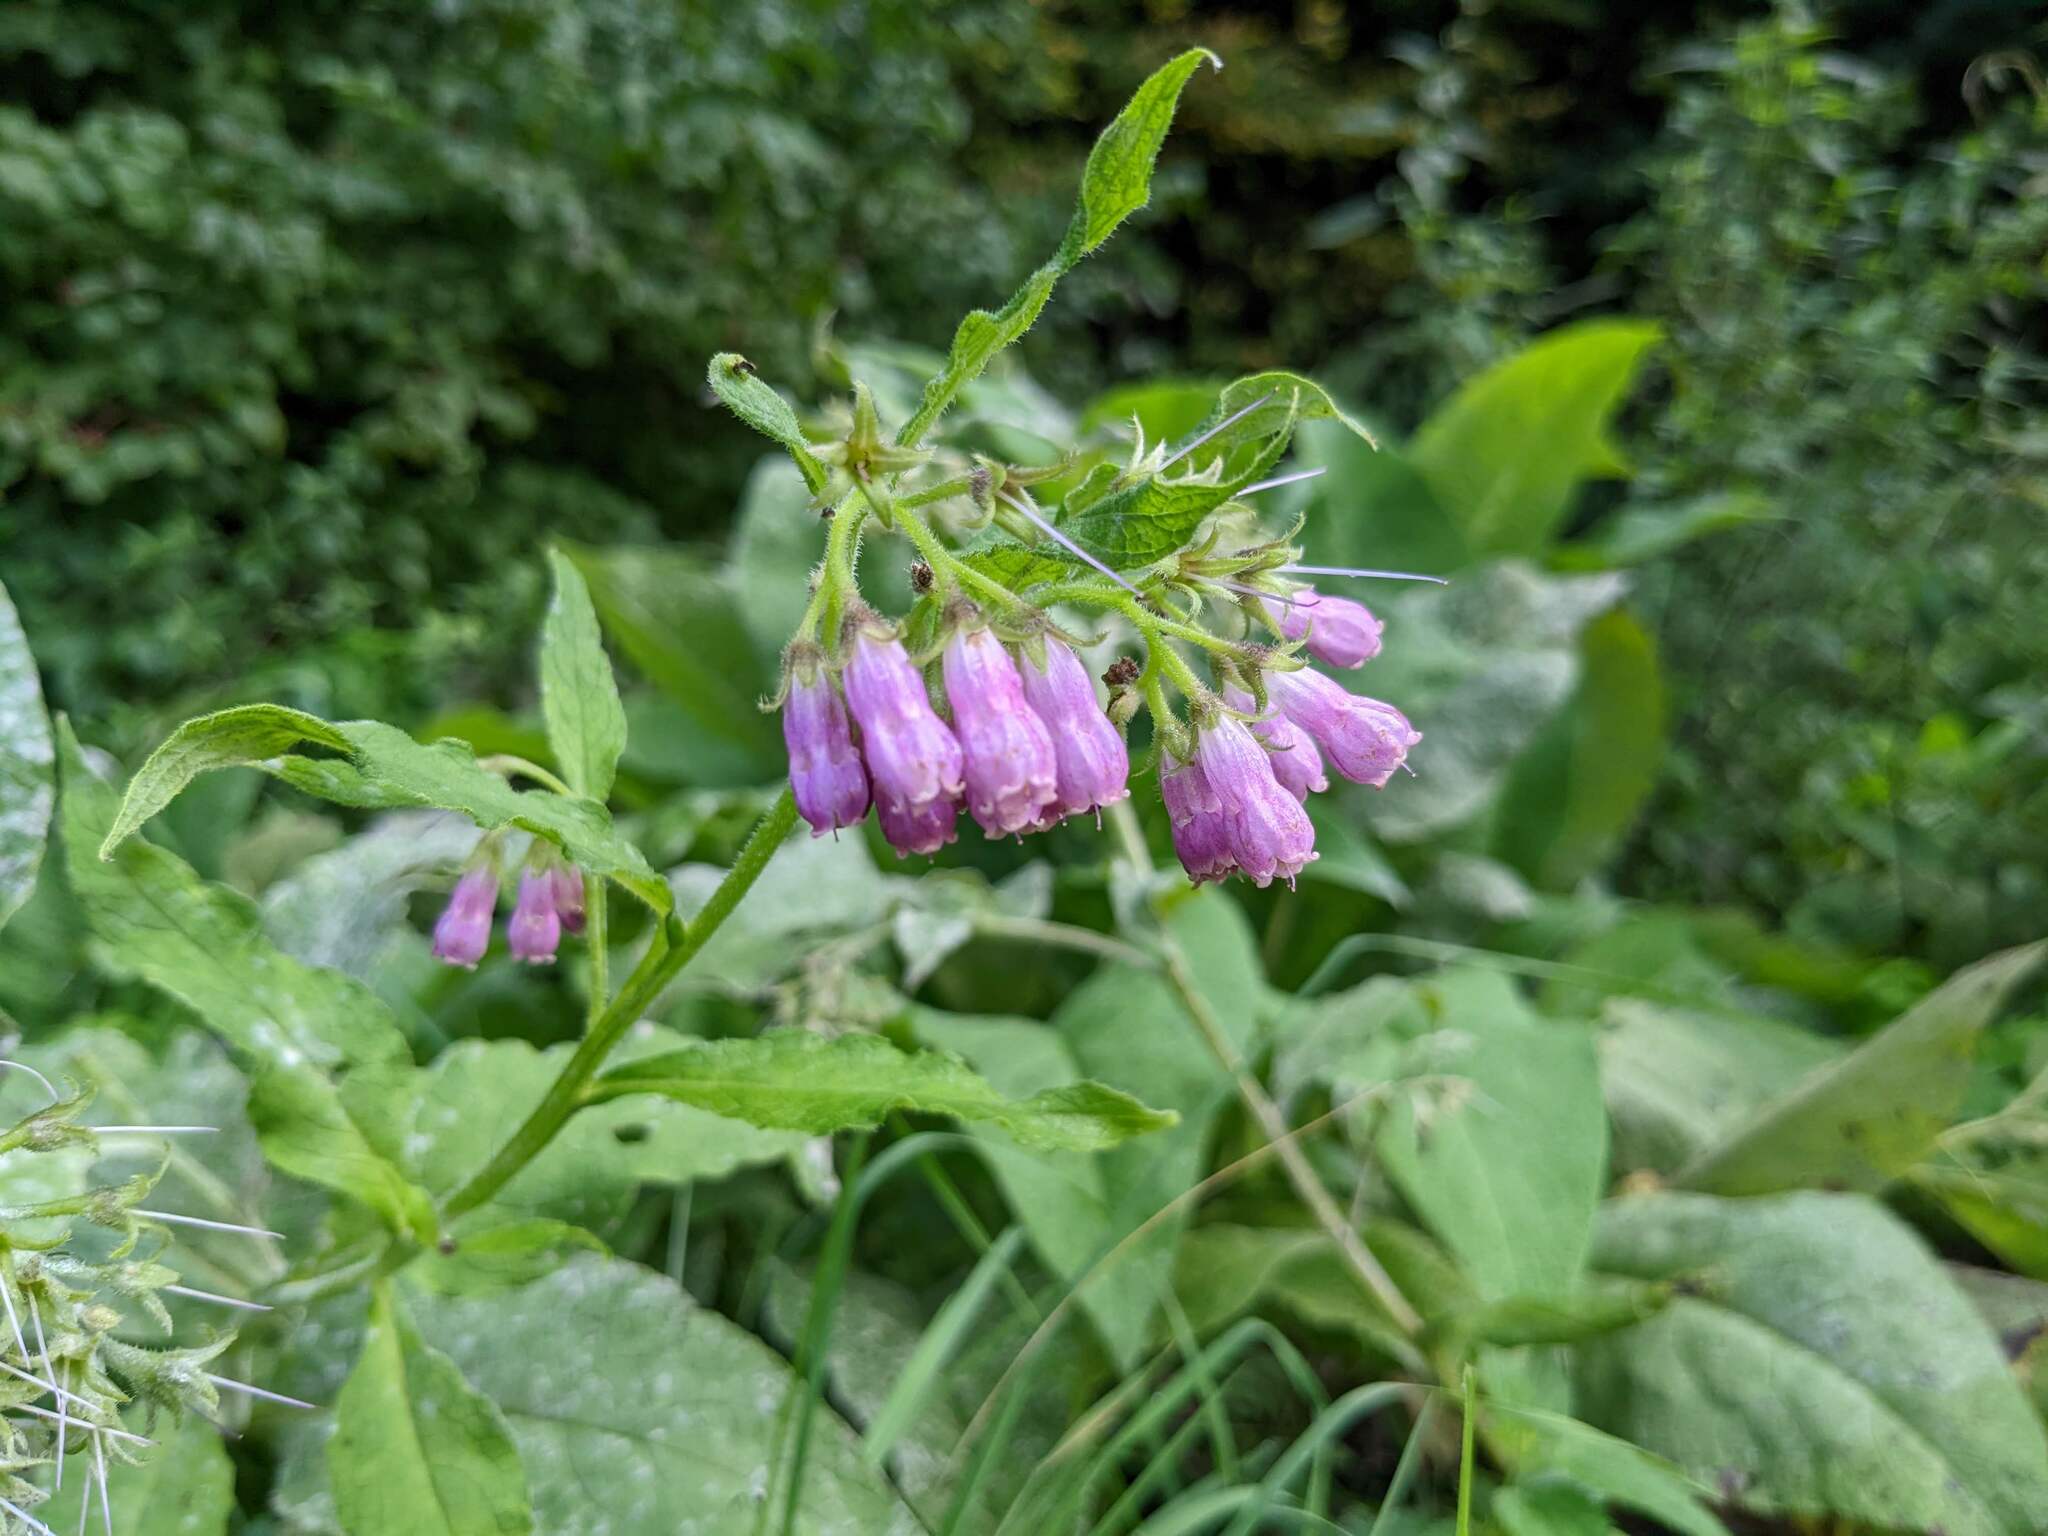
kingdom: Plantae
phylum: Tracheophyta
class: Magnoliopsida
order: Boraginales
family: Boraginaceae
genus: Symphytum
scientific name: Symphytum officinale
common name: Common comfrey
